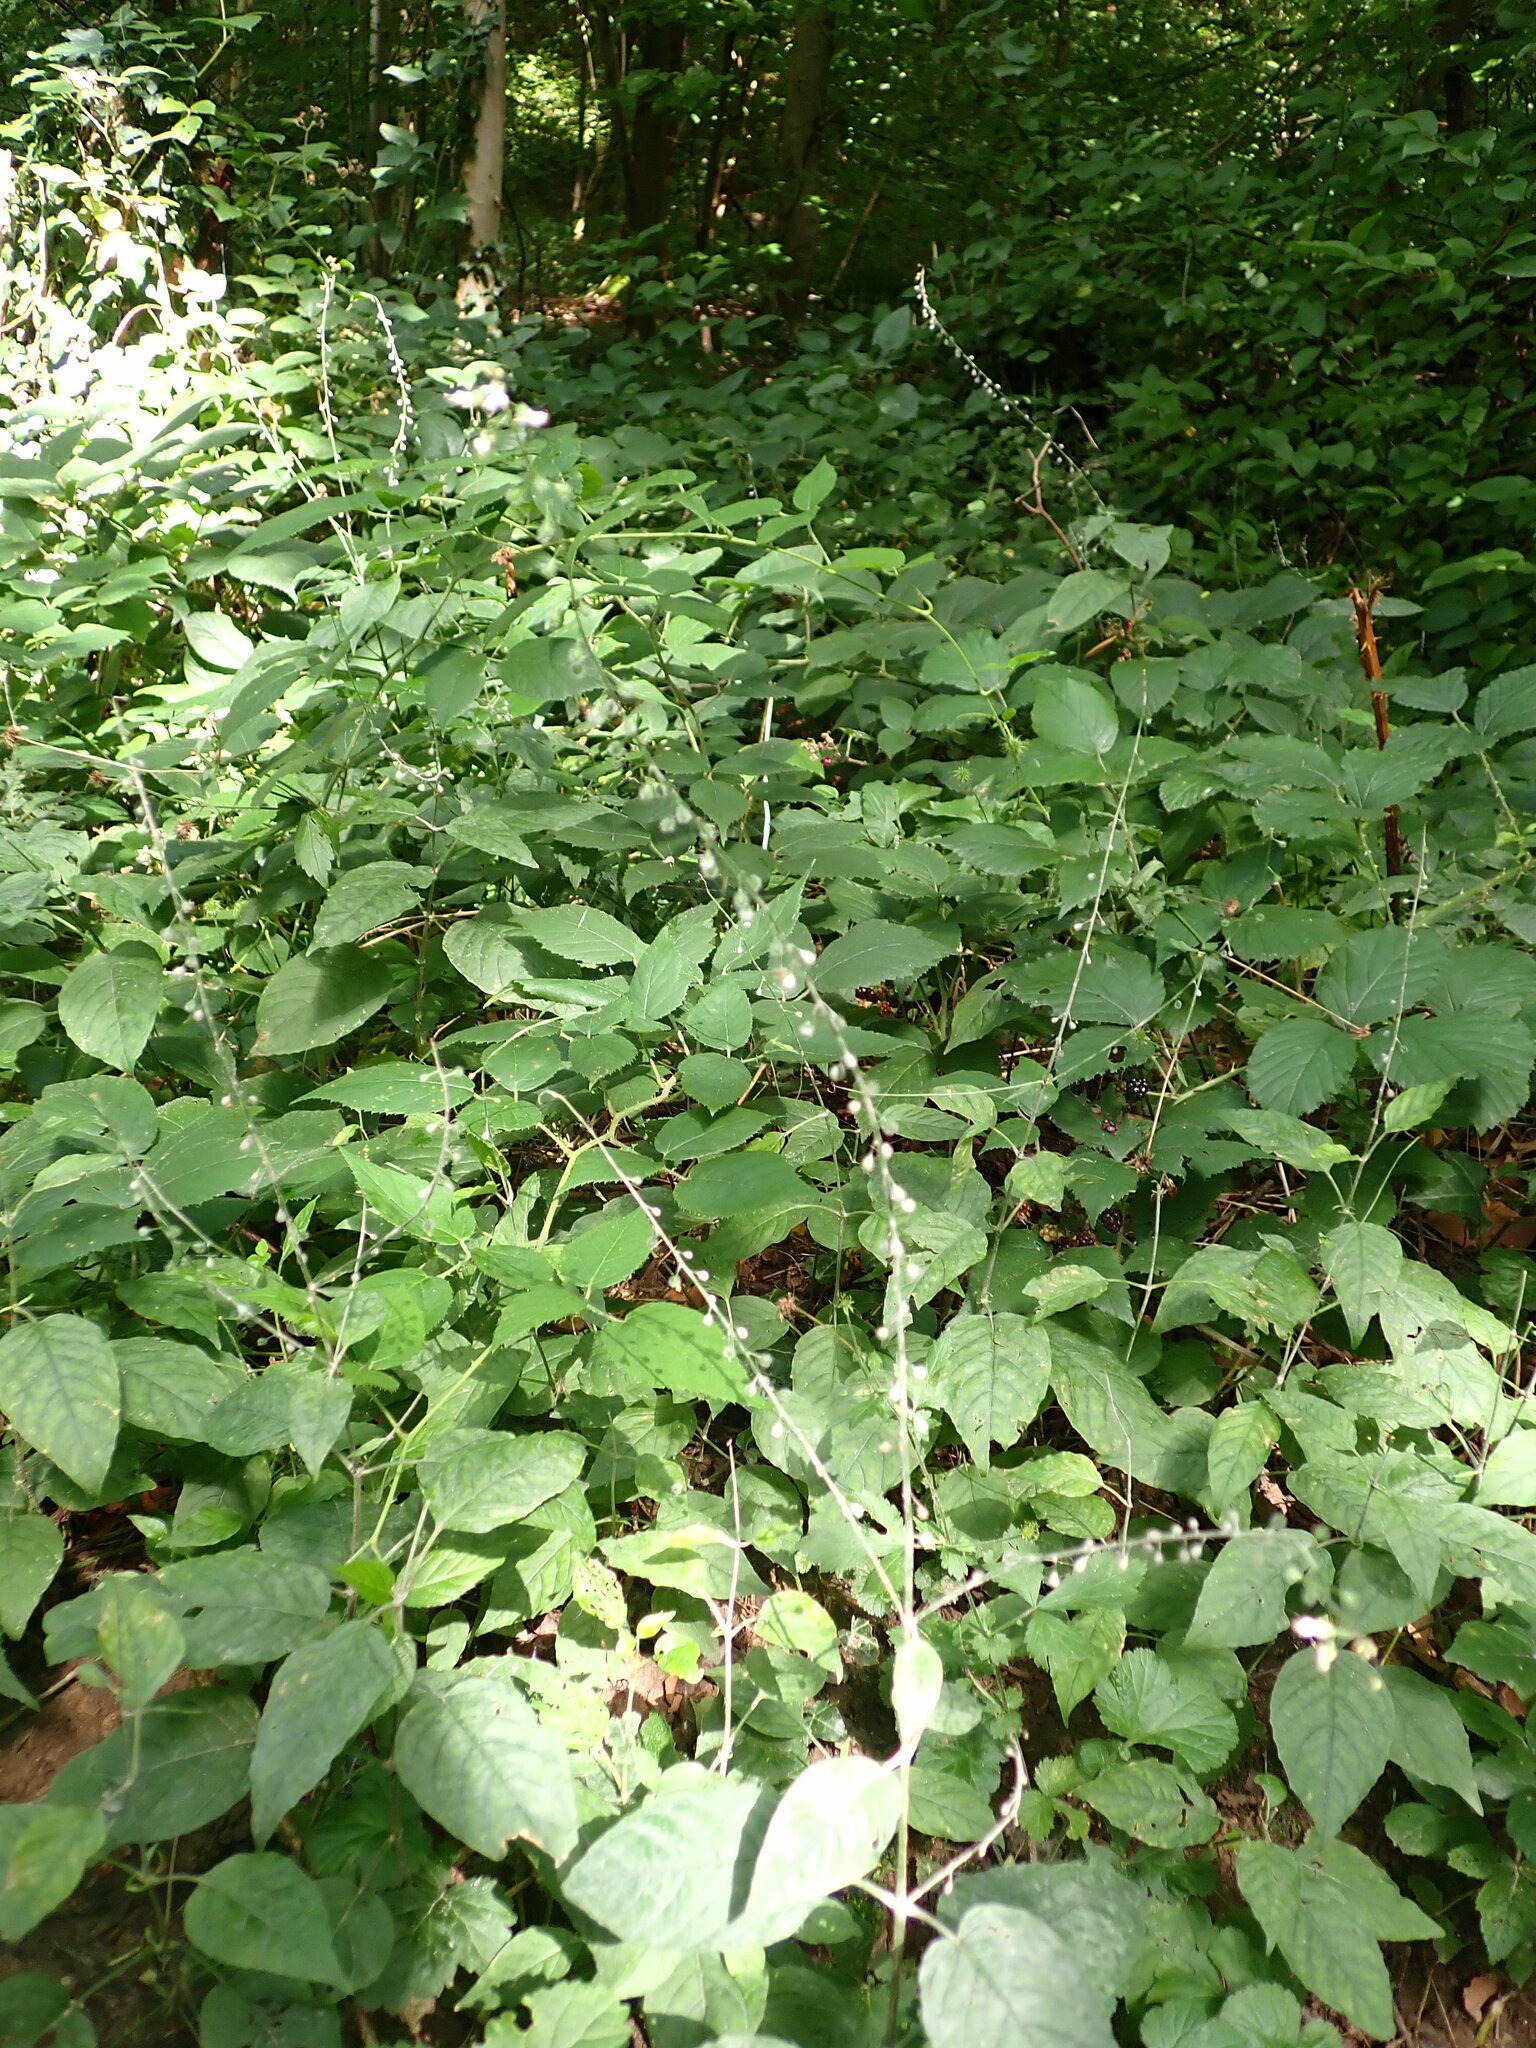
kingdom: Plantae
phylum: Tracheophyta
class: Magnoliopsida
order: Myrtales
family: Onagraceae
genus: Circaea
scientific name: Circaea lutetiana
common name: Enchanter's-nightshade
